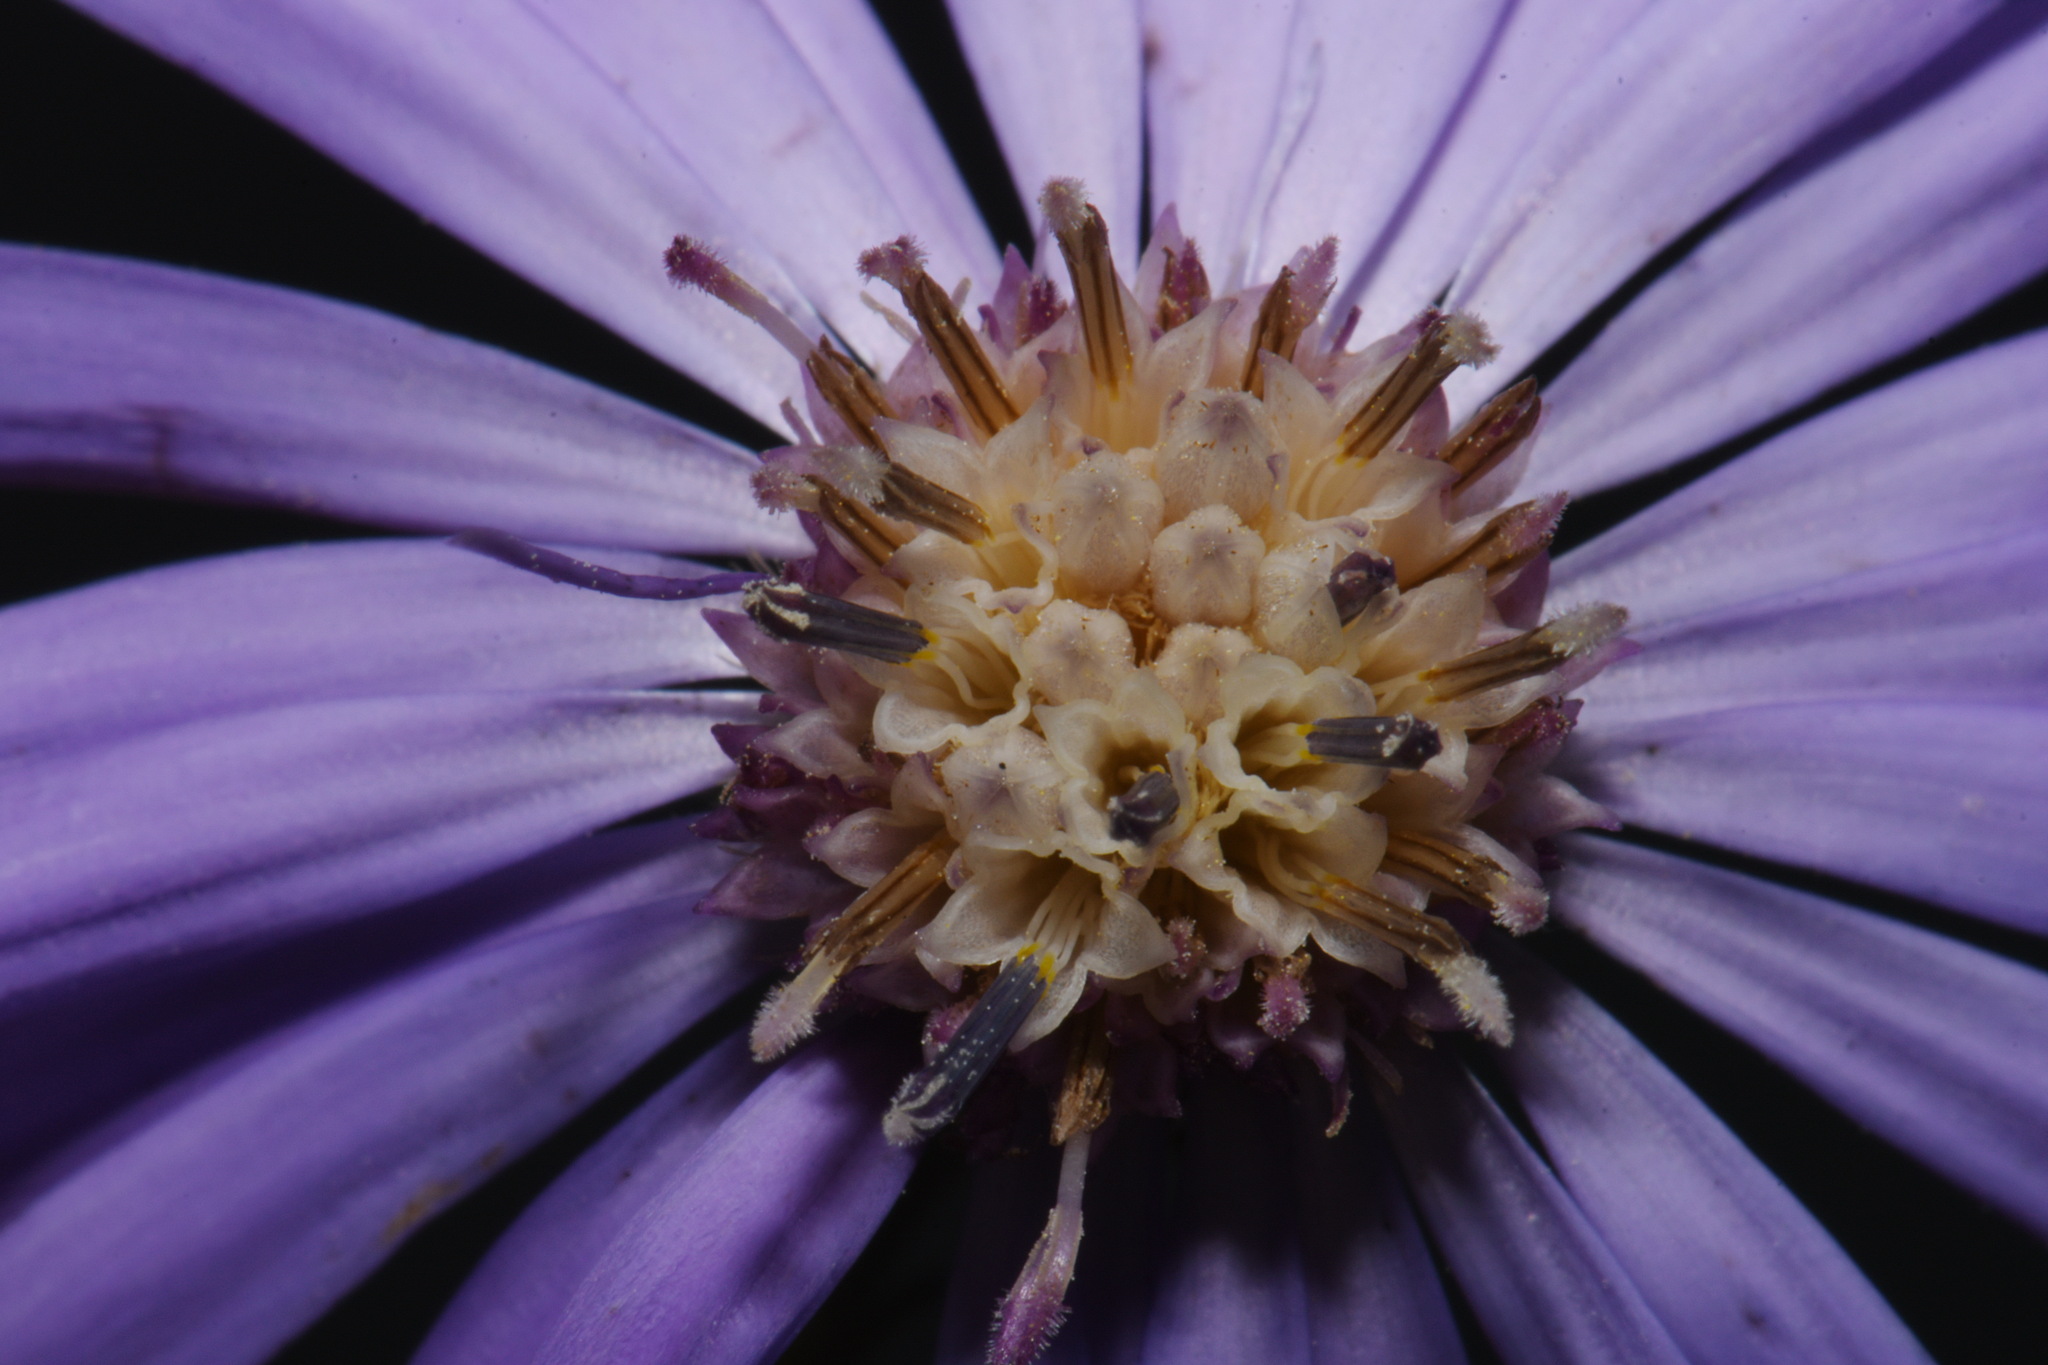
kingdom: Plantae
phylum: Tracheophyta
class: Magnoliopsida
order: Asterales
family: Asteraceae
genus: Symphyotrichum
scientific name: Symphyotrichum georgianum
